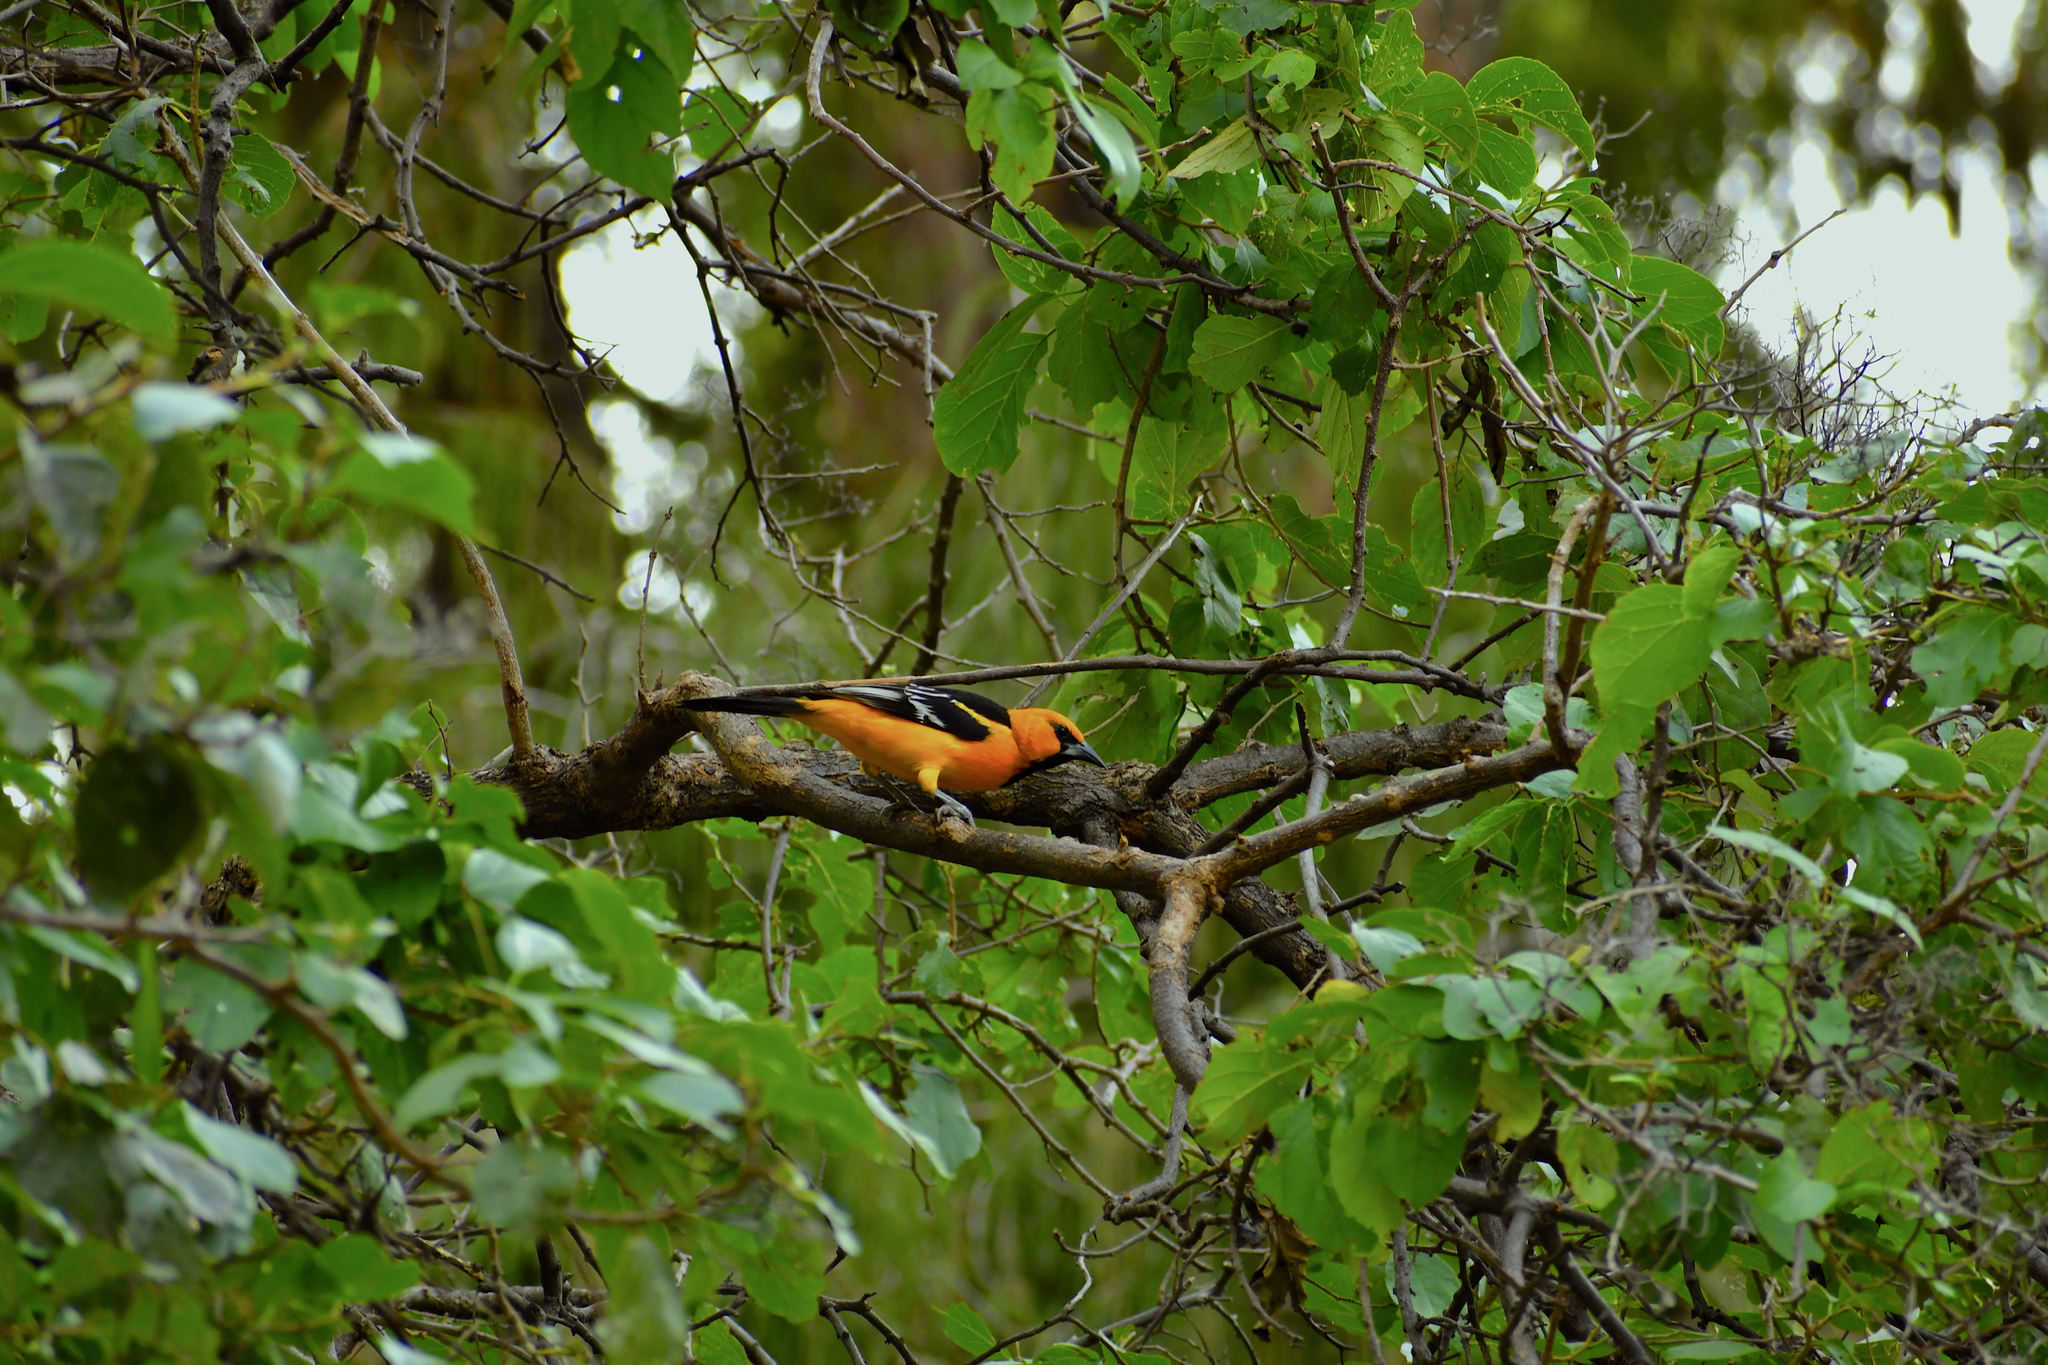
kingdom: Animalia
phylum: Chordata
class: Aves
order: Passeriformes
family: Icteridae
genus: Icterus
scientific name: Icterus gularis
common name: Altamira oriole
